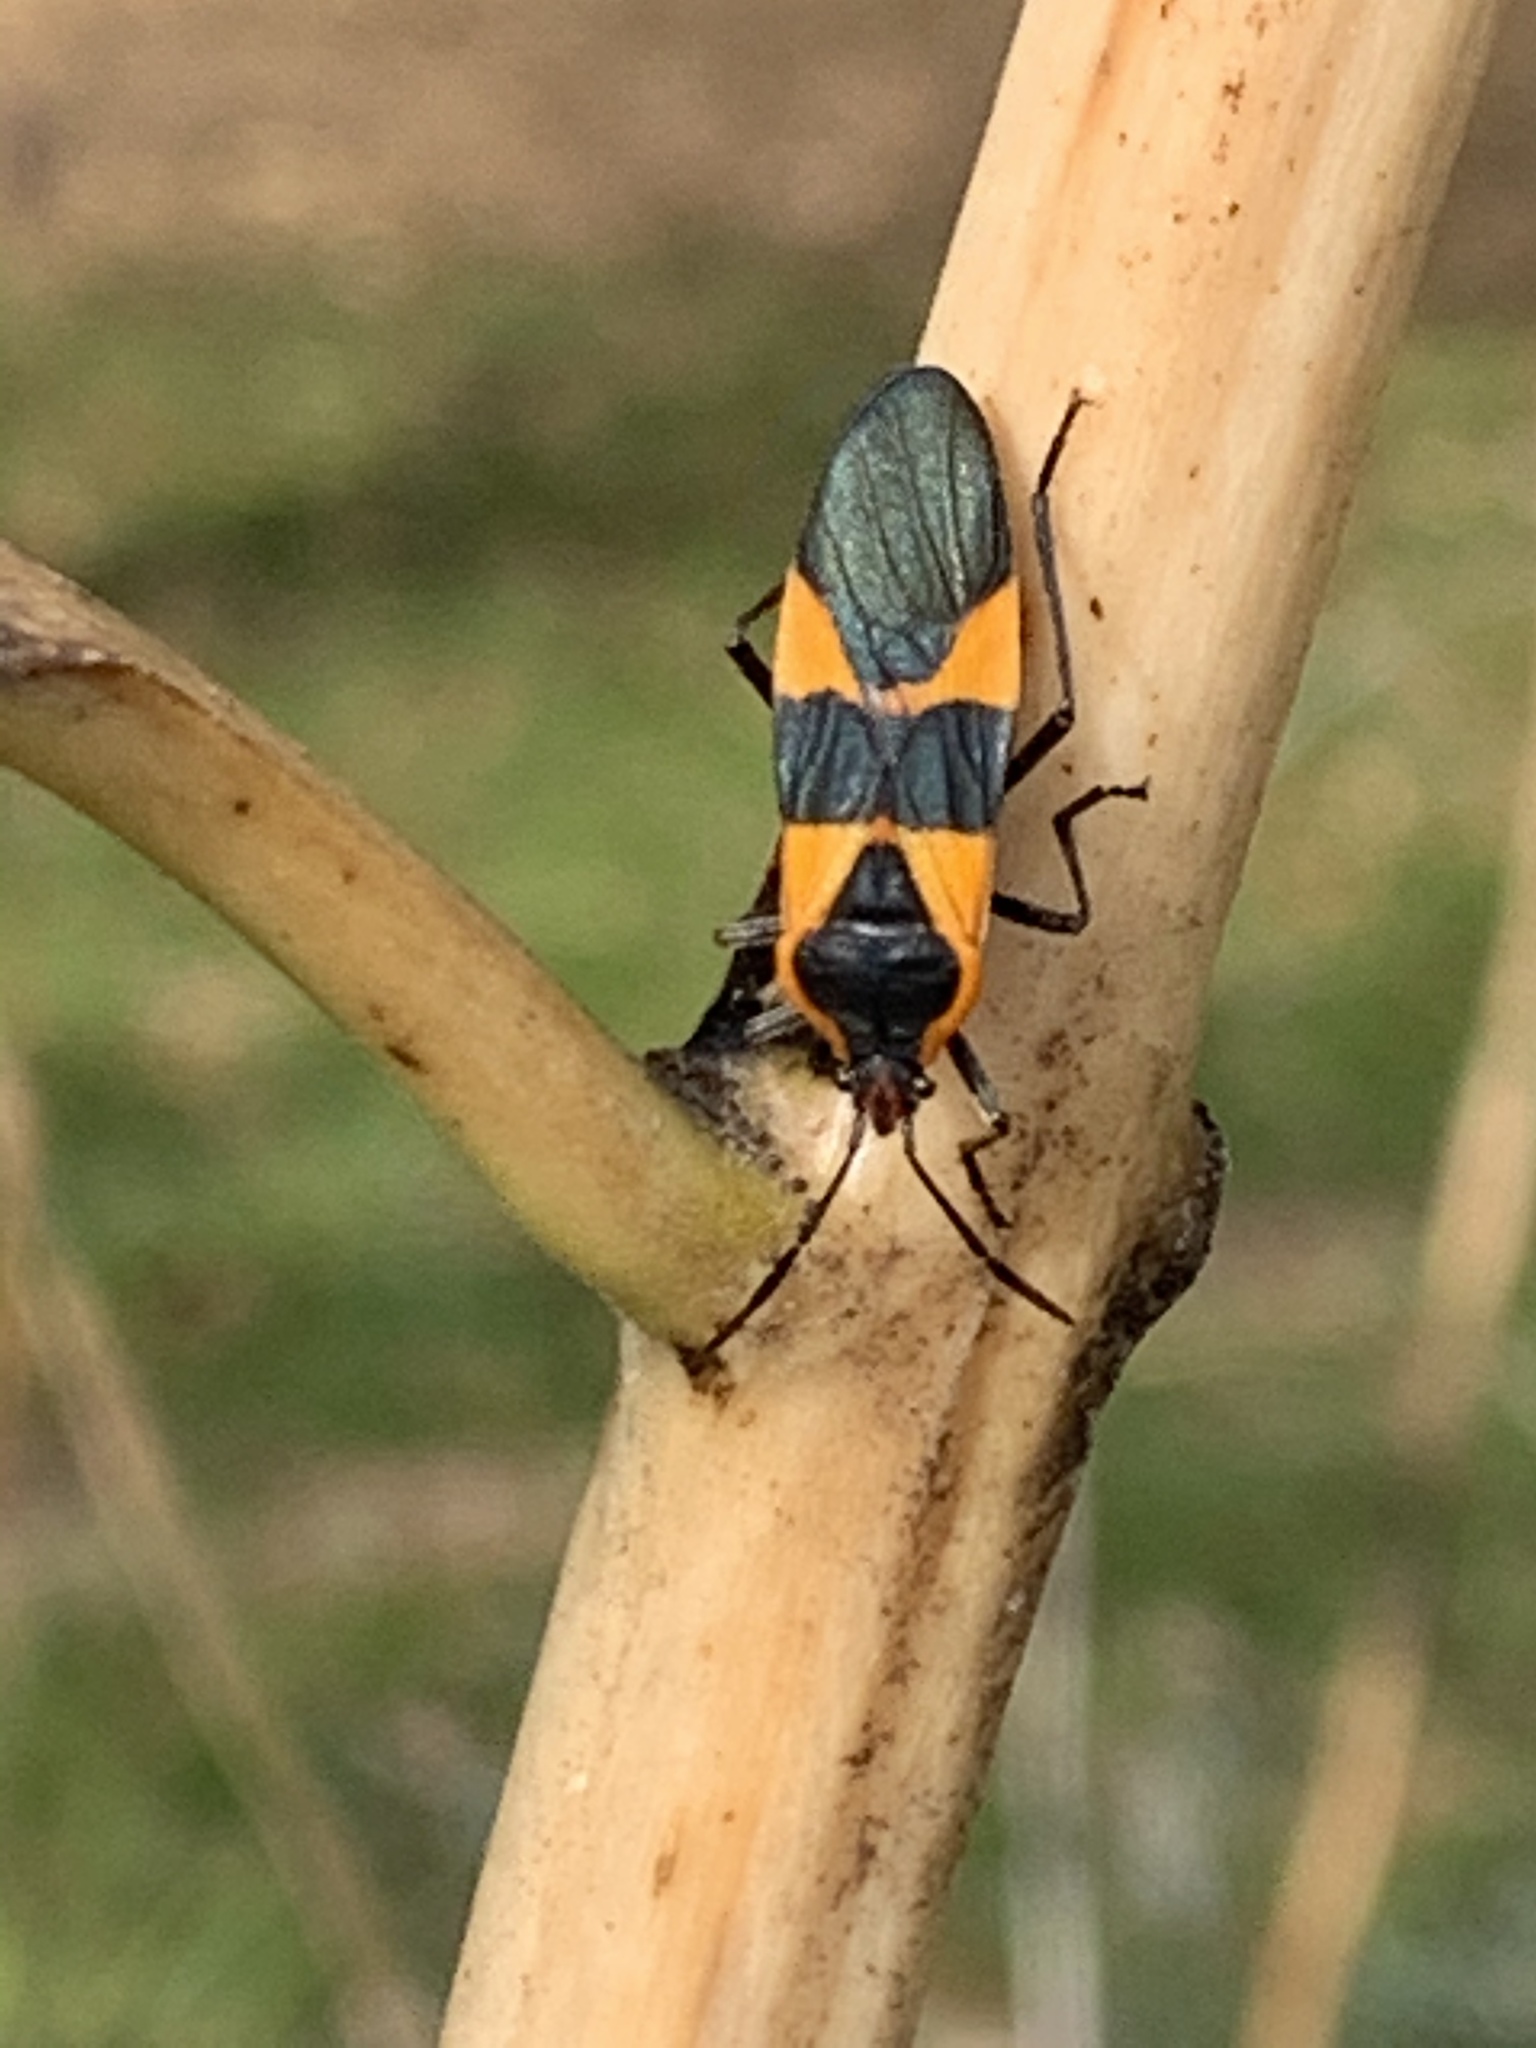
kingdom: Animalia
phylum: Arthropoda
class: Insecta
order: Hemiptera
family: Lygaeidae
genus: Oncopeltus
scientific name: Oncopeltus fasciatus
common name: Large milkweed bug
